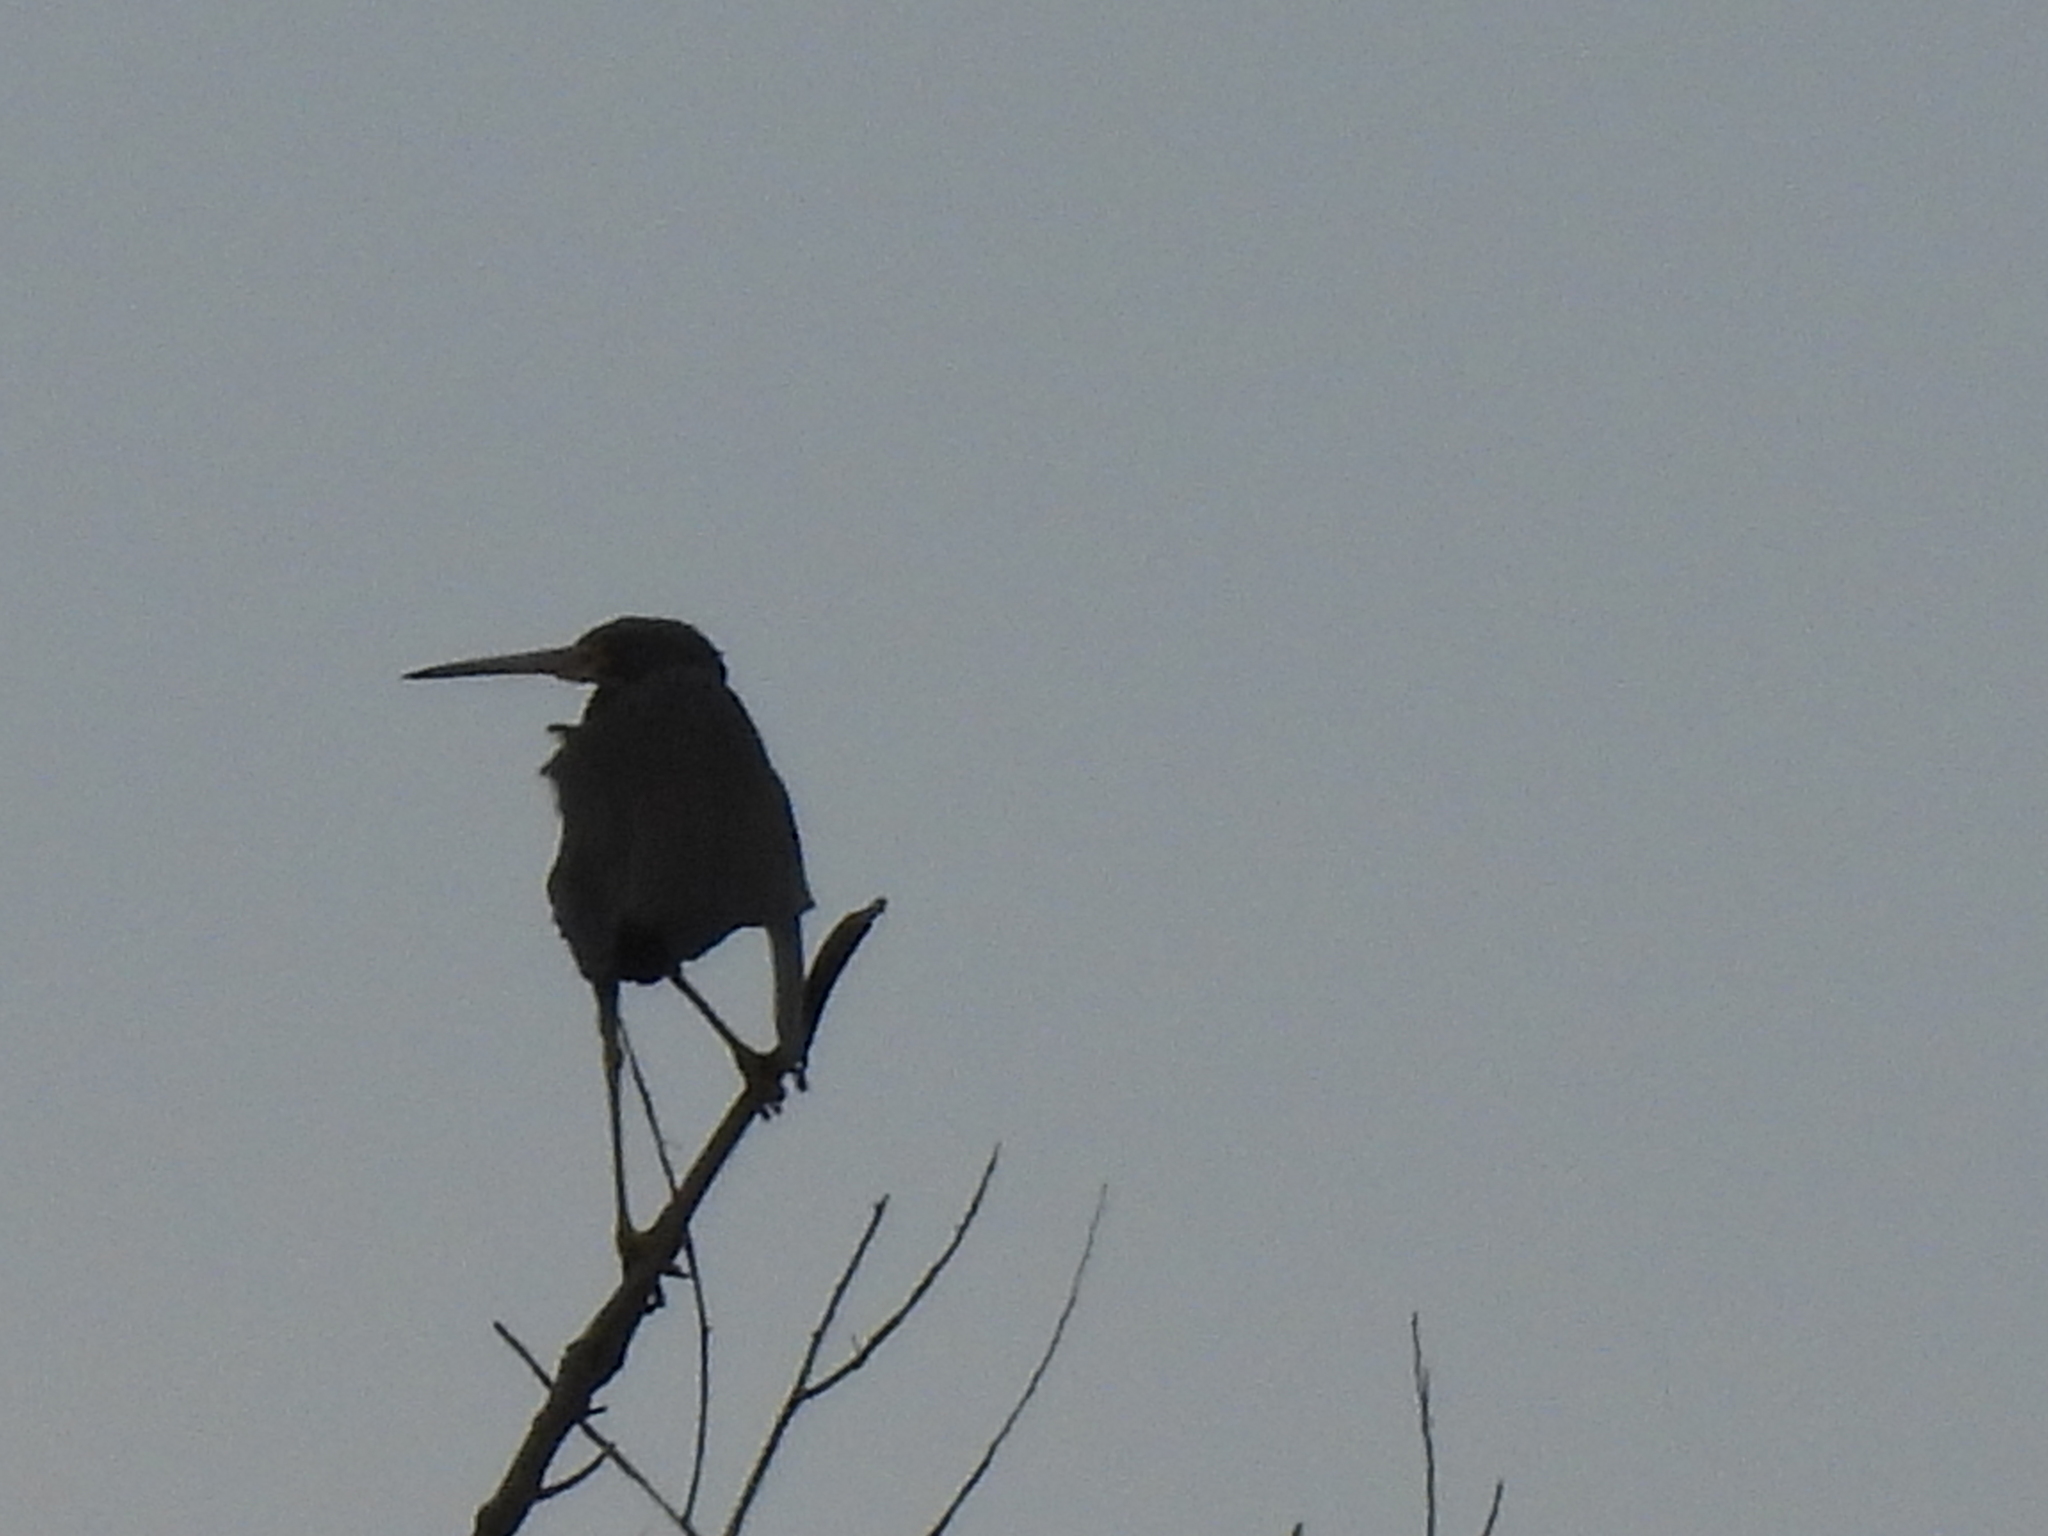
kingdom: Animalia
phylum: Chordata
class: Aves
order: Pelecaniformes
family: Ardeidae
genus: Egretta
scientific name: Egretta tricolor
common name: Tricolored heron
